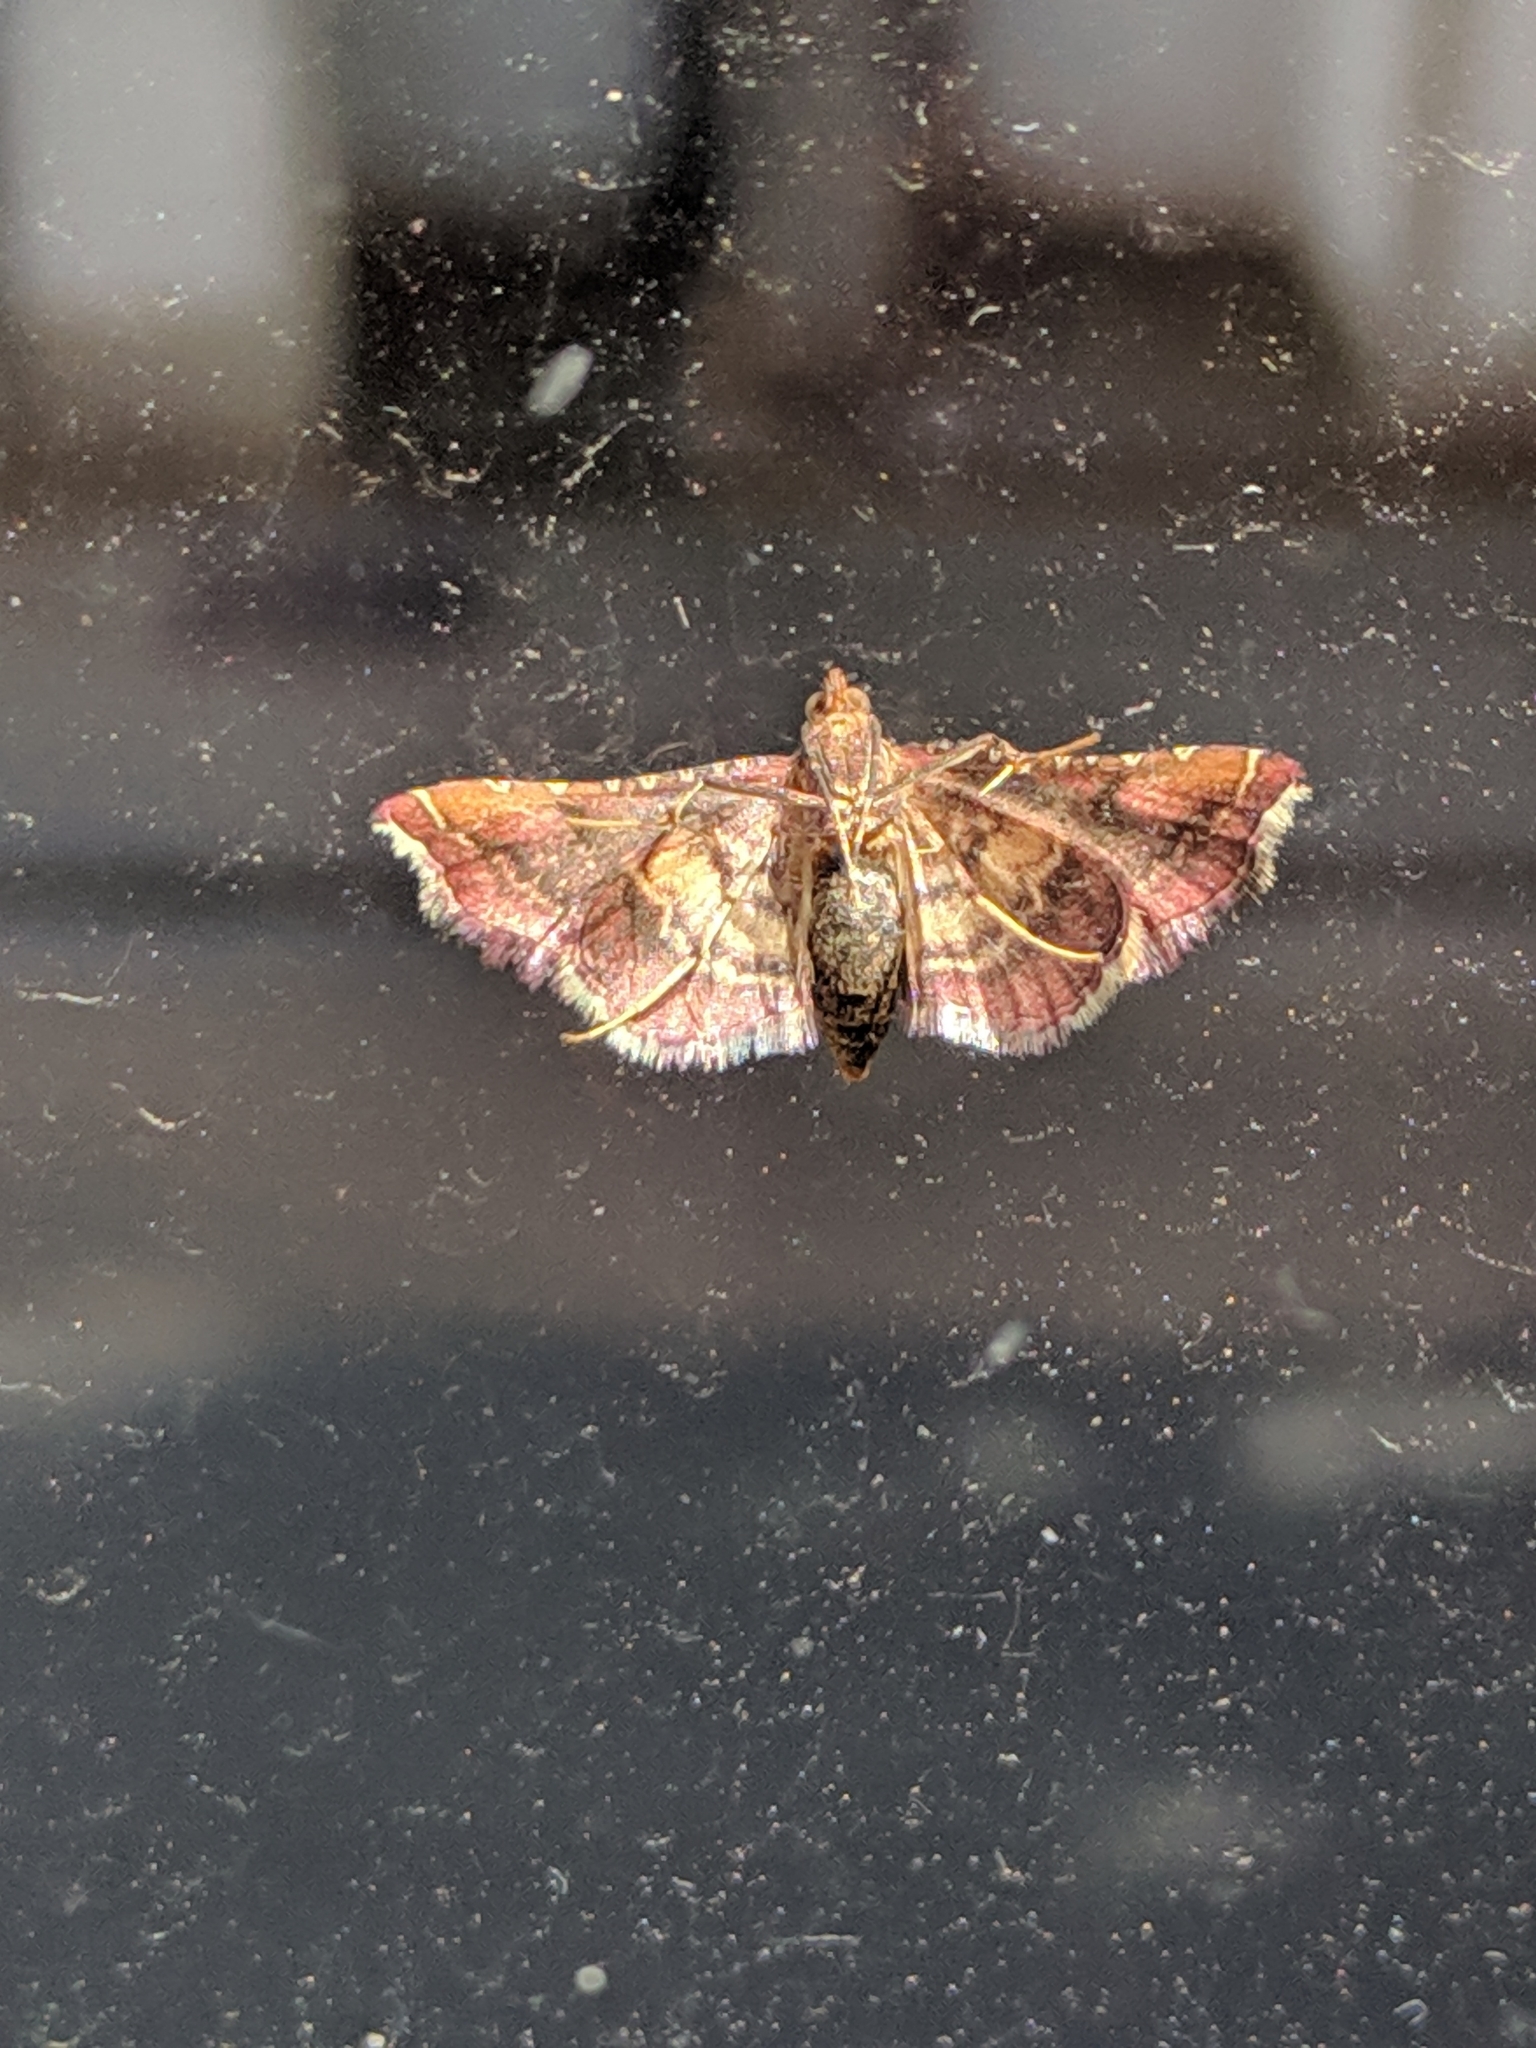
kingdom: Animalia
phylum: Arthropoda
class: Insecta
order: Lepidoptera
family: Pyralidae
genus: Endotricha
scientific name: Endotricha flammealis
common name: Rosy tabby
